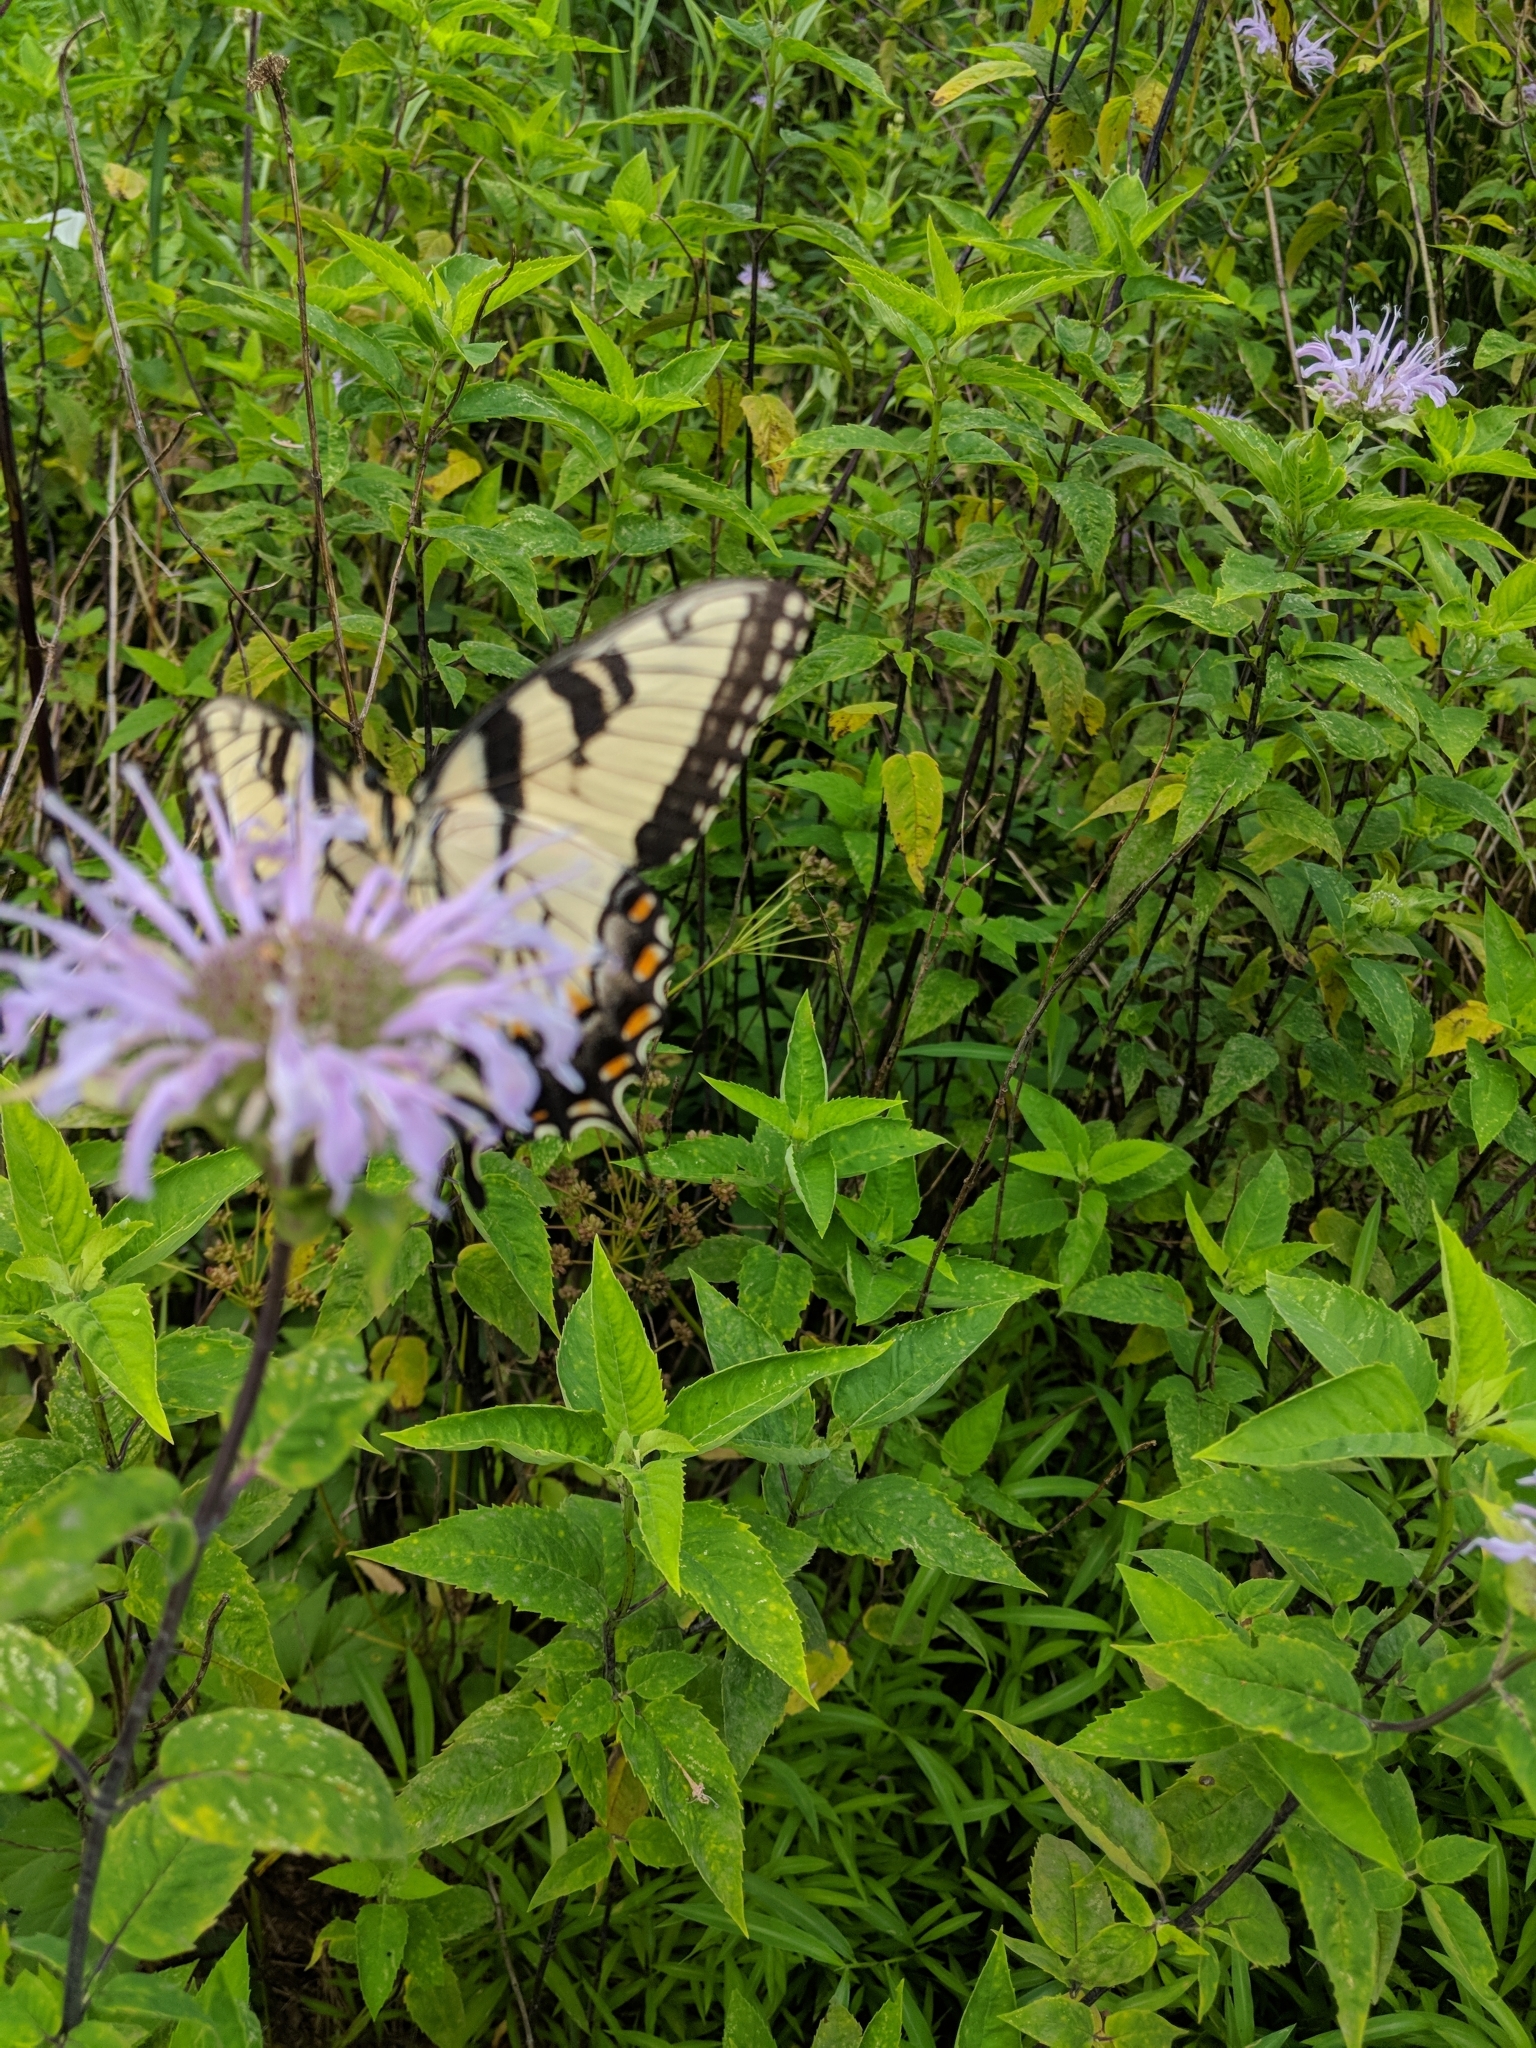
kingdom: Animalia
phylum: Arthropoda
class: Insecta
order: Lepidoptera
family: Papilionidae
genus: Papilio
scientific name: Papilio glaucus
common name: Tiger swallowtail
